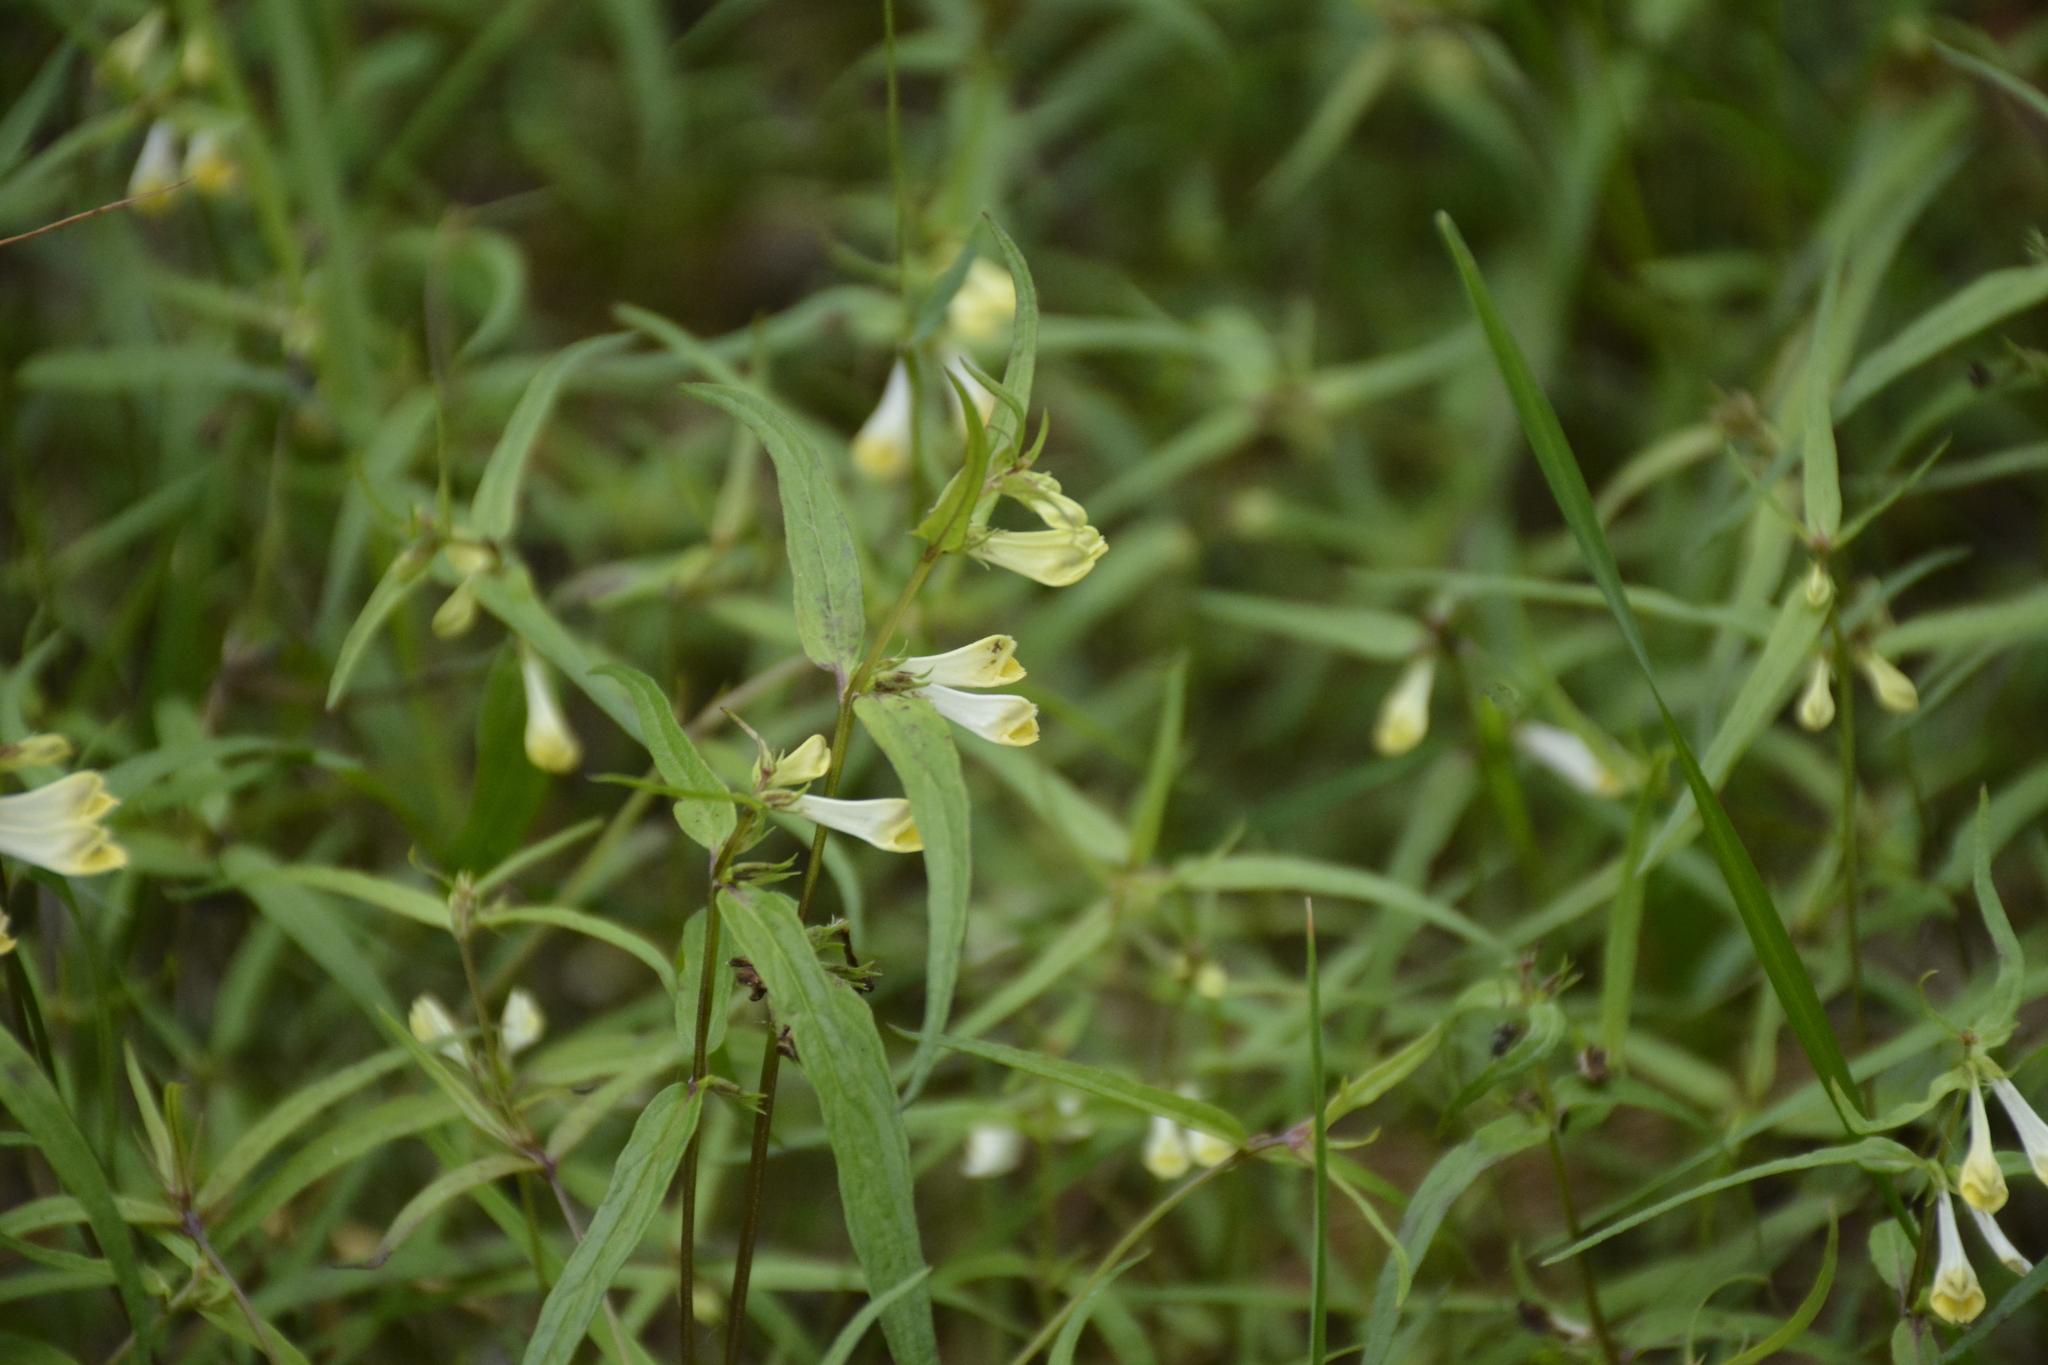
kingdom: Plantae
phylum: Tracheophyta
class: Magnoliopsida
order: Lamiales
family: Orobanchaceae
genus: Melampyrum
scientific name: Melampyrum pratense
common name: Common cow-wheat
